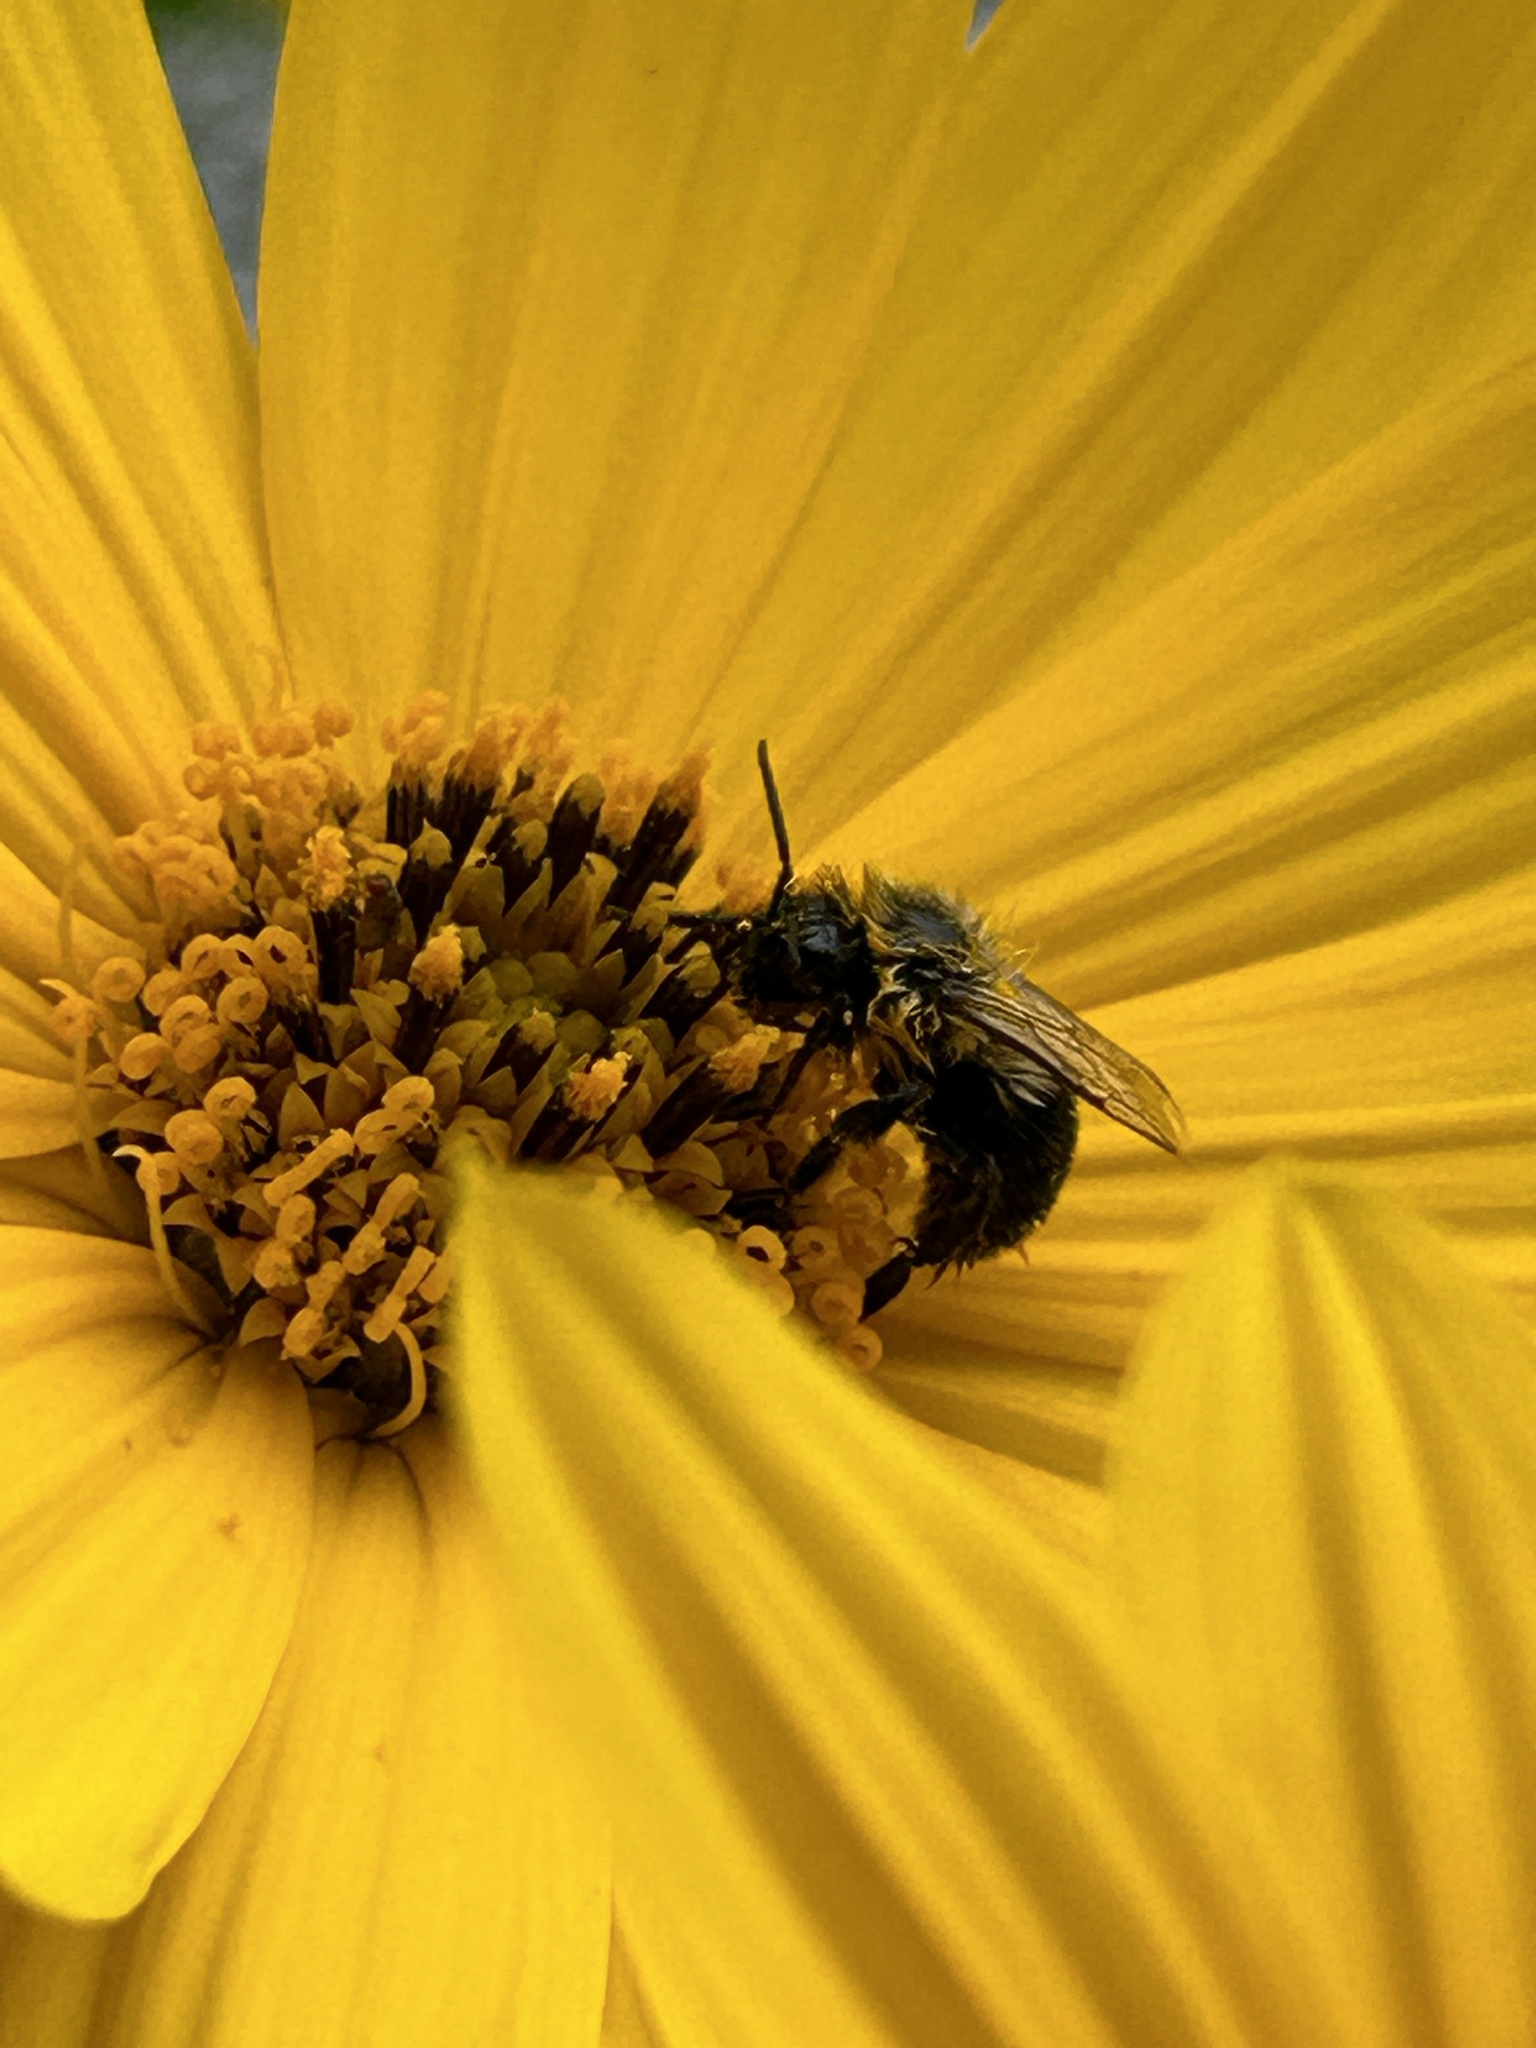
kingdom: Animalia
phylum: Arthropoda
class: Insecta
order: Hymenoptera
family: Apidae
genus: Bombus
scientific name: Bombus impatiens
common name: Common eastern bumble bee
